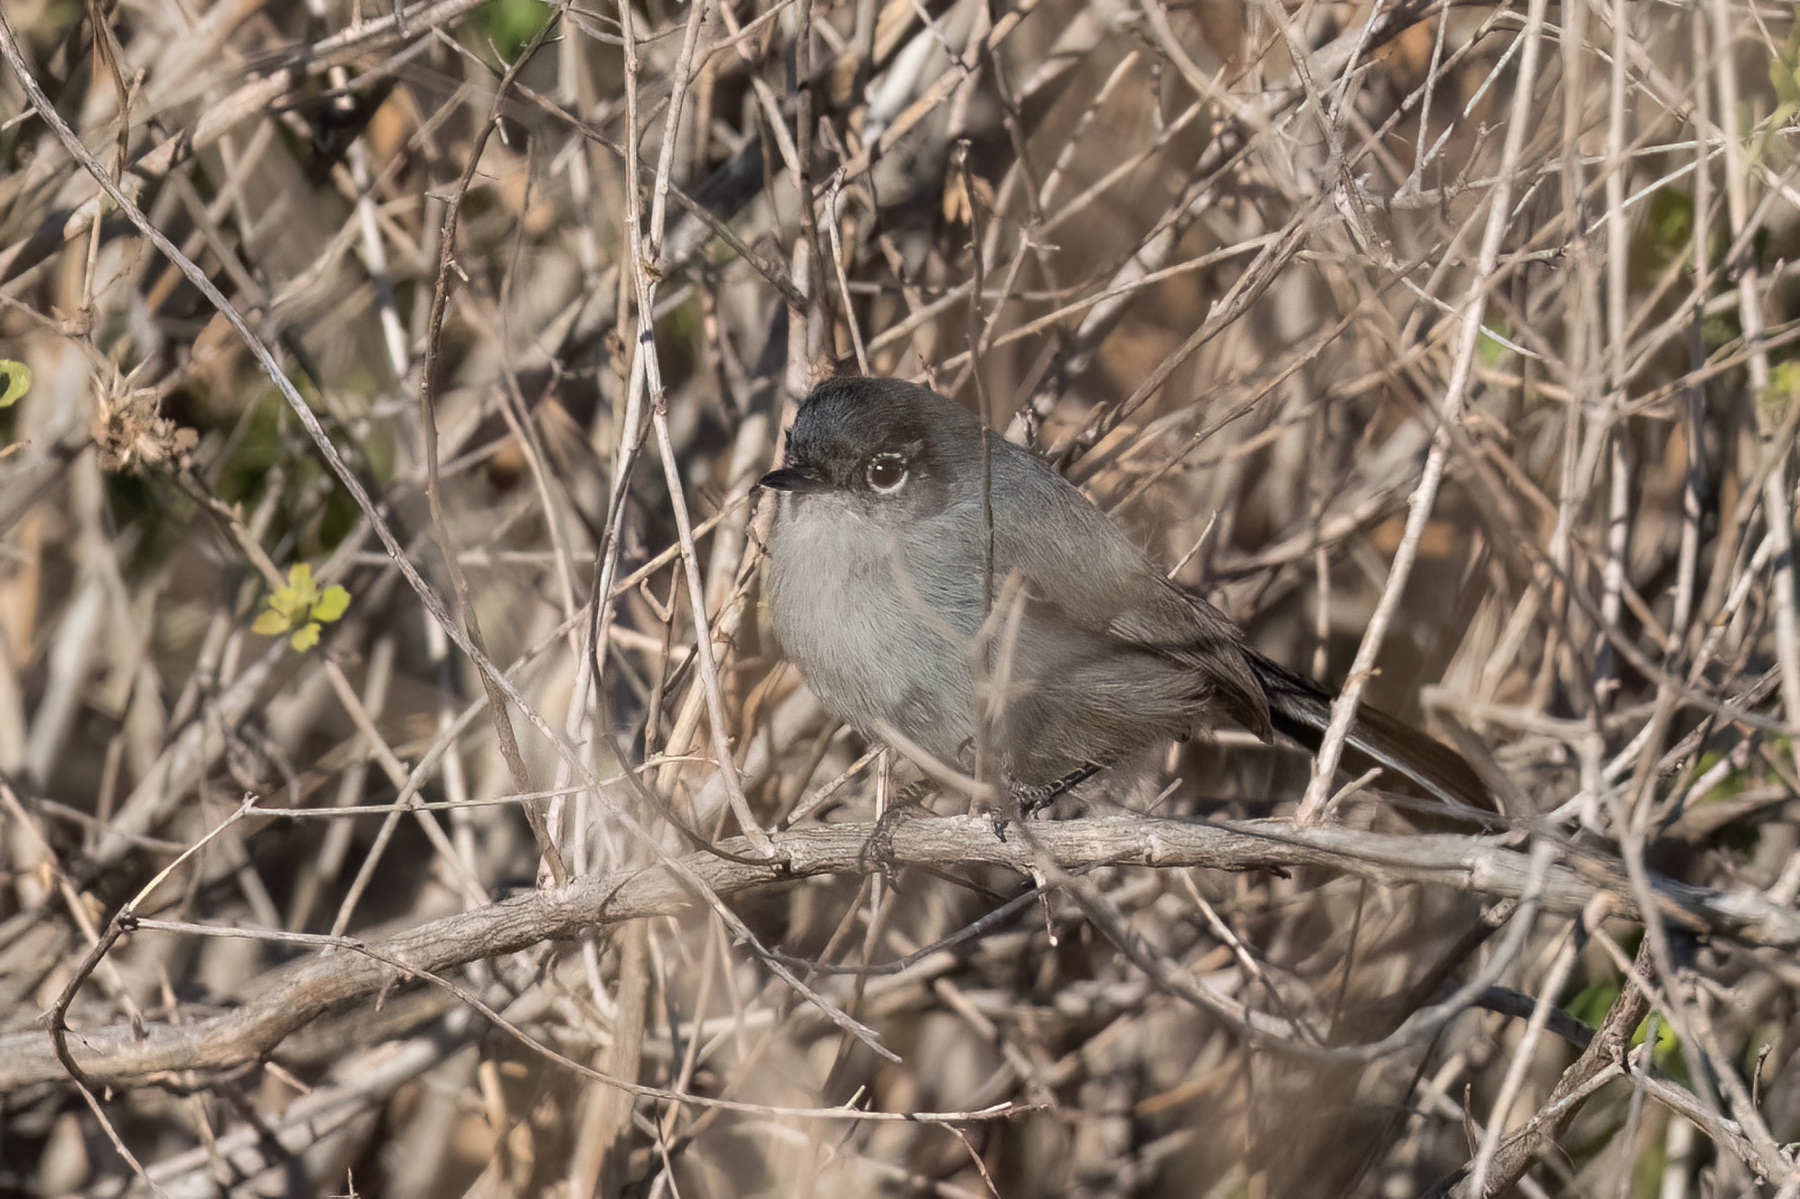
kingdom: Animalia
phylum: Chordata
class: Aves
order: Passeriformes
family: Polioptilidae
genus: Polioptila
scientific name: Polioptila californica
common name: California gnatcatcher
